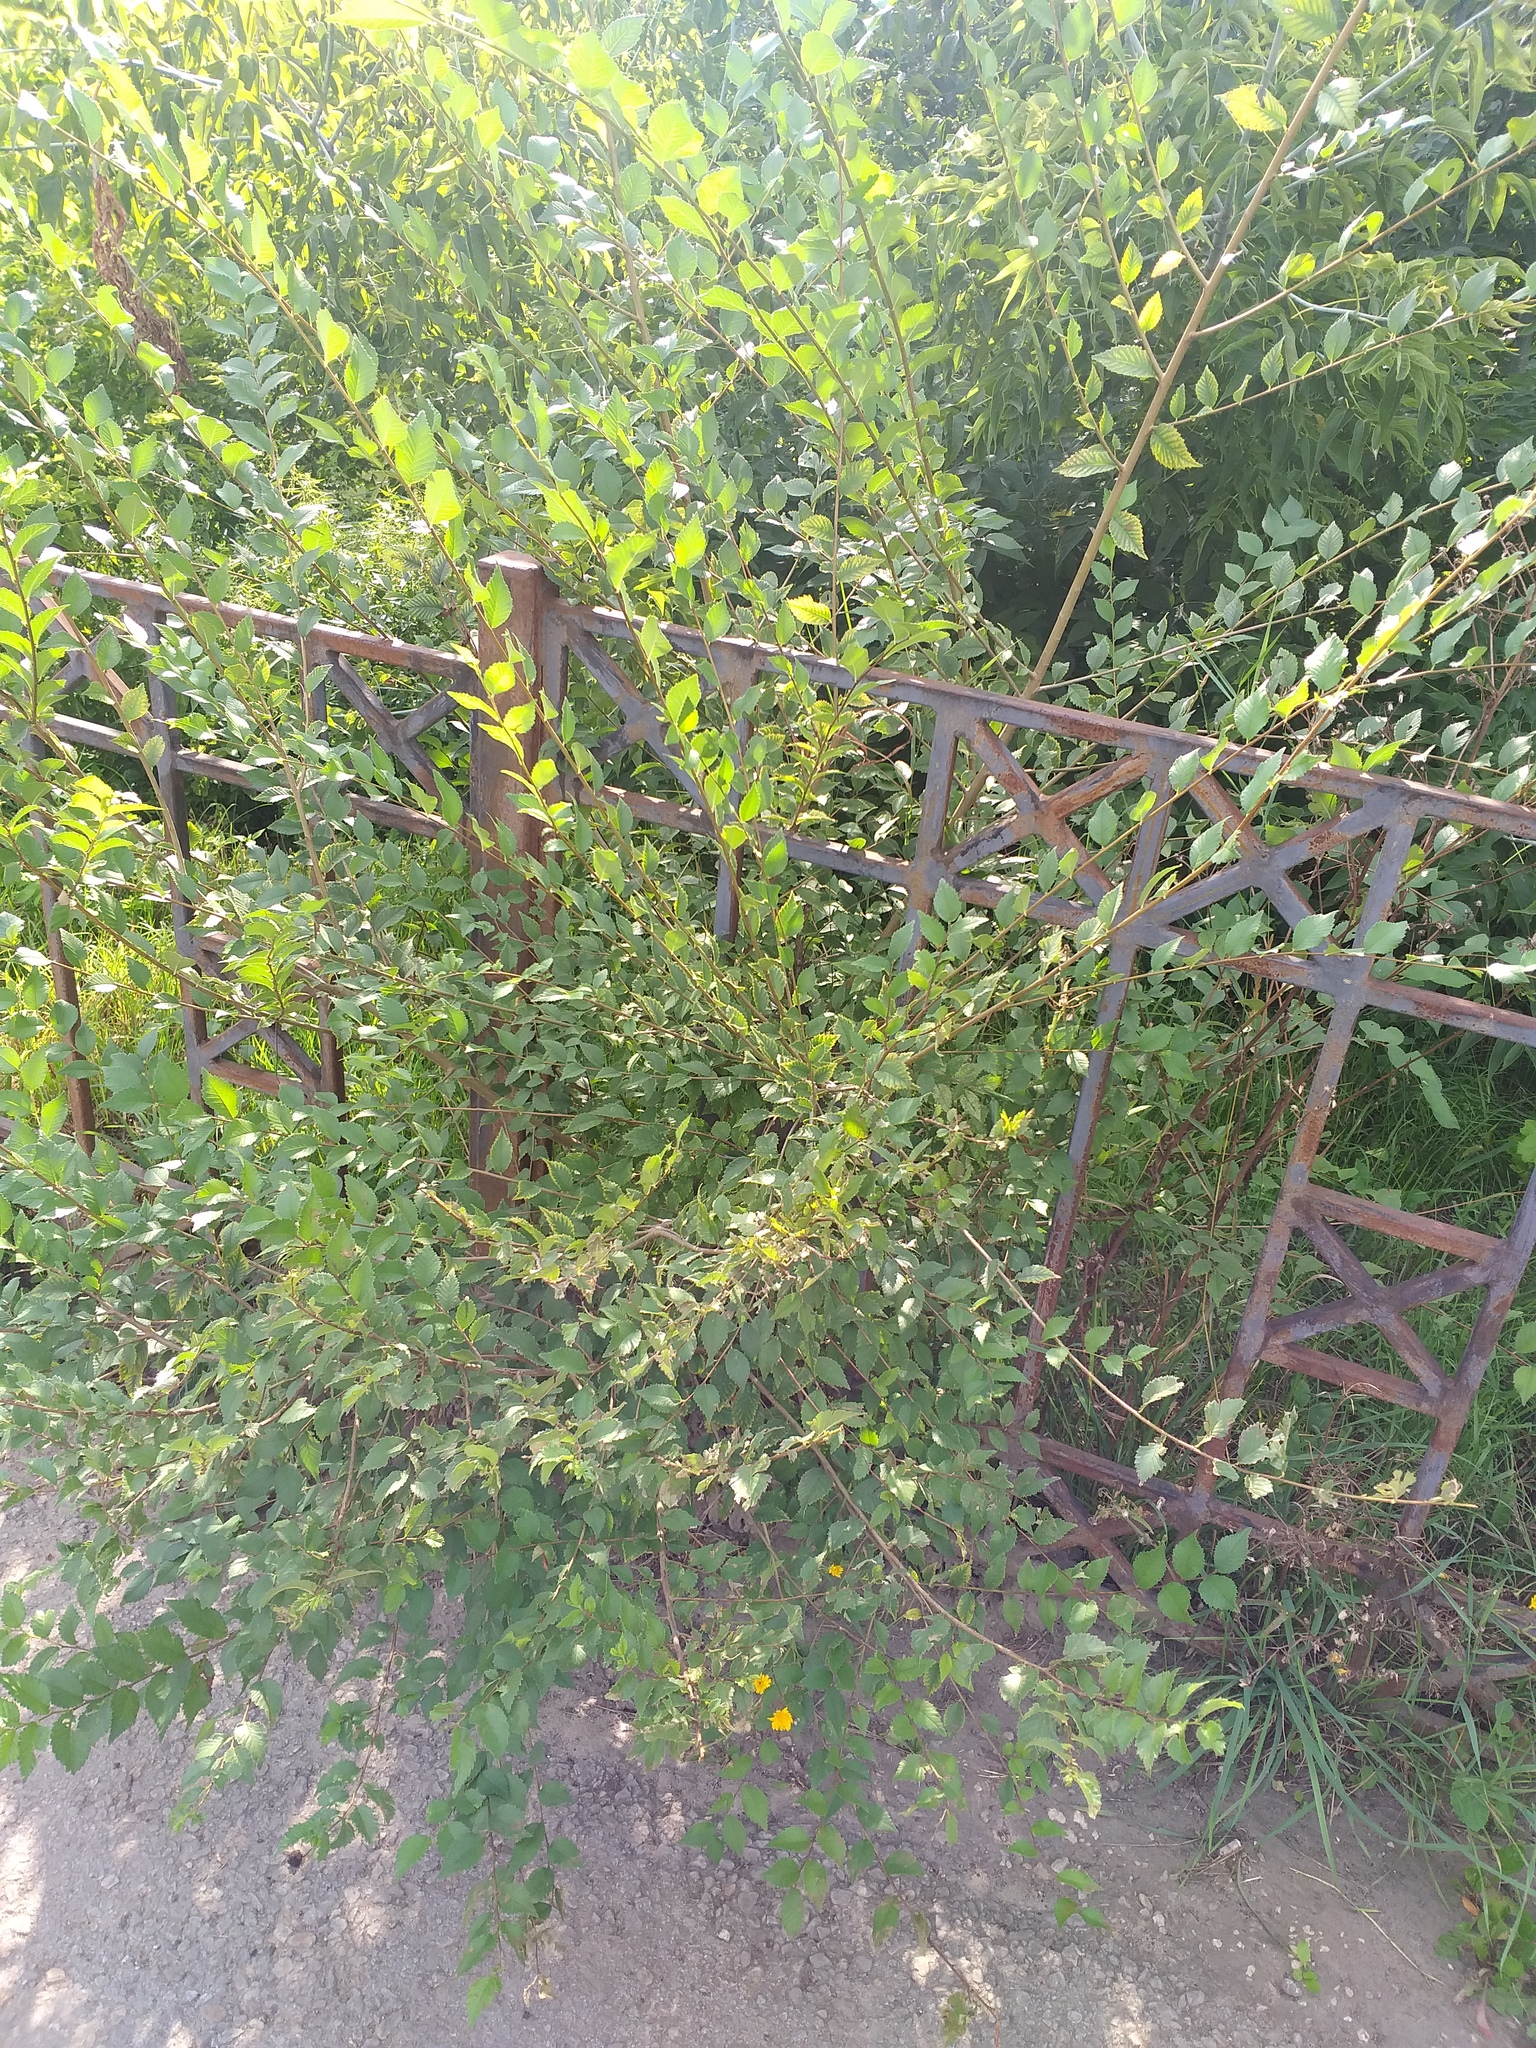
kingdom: Plantae
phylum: Tracheophyta
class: Magnoliopsida
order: Rosales
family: Ulmaceae
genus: Ulmus
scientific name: Ulmus pumila
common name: Siberian elm
